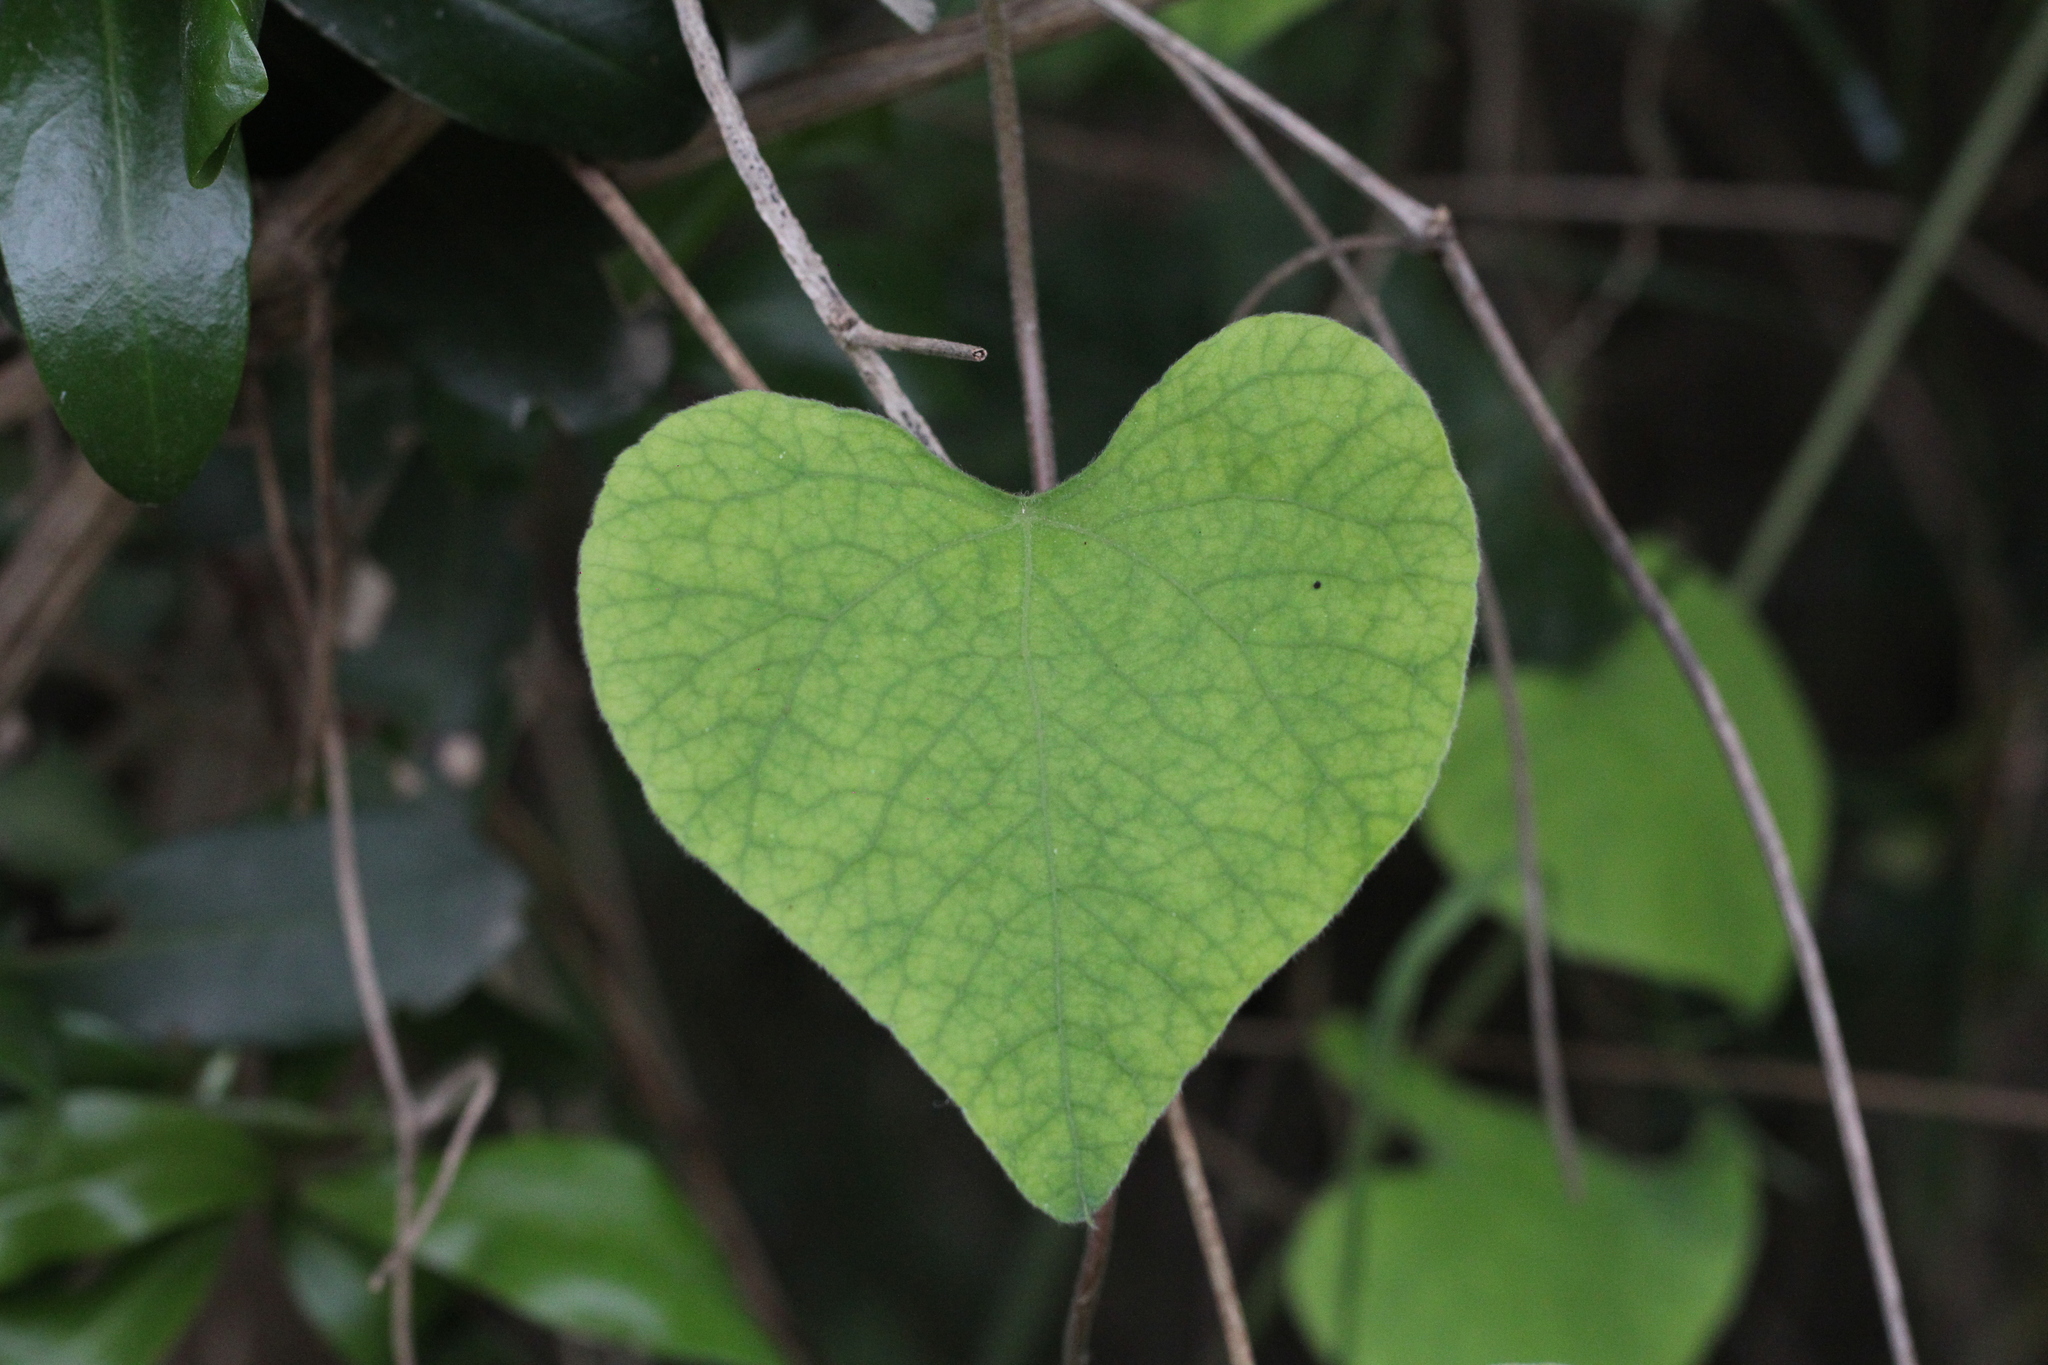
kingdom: Plantae
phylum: Tracheophyta
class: Magnoliopsida
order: Piperales
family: Aristolochiaceae
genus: Aristolochia
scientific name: Aristolochia littoralis
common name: Duck
